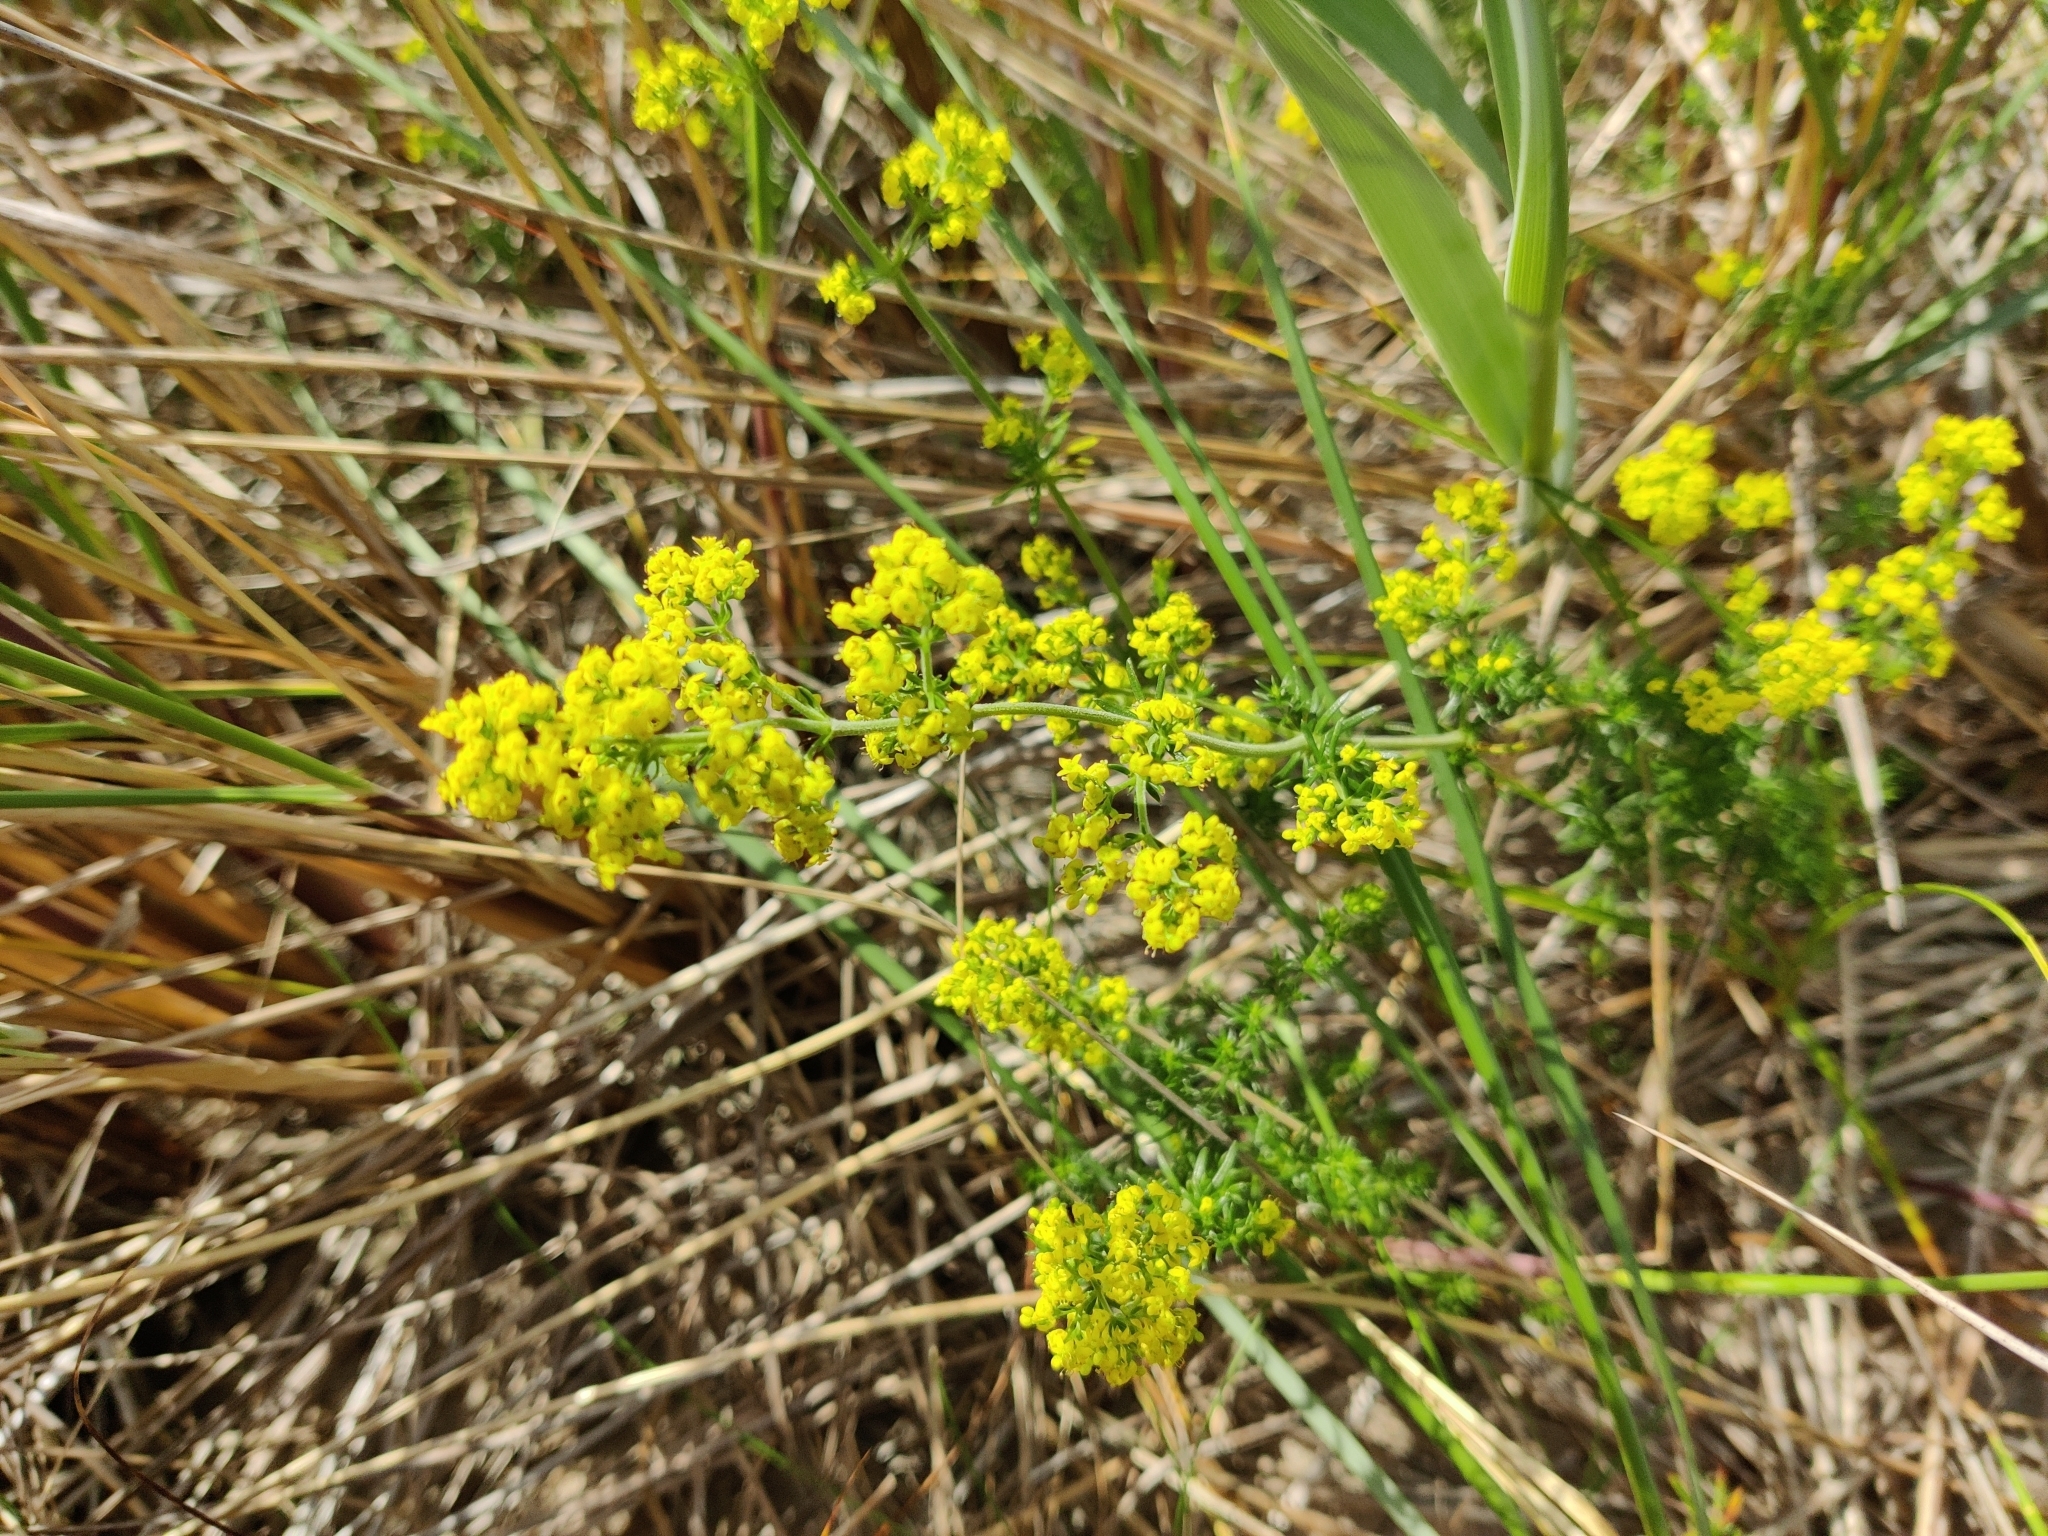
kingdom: Plantae
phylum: Tracheophyta
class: Magnoliopsida
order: Gentianales
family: Rubiaceae
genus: Galium
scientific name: Galium verum
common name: Lady's bedstraw
